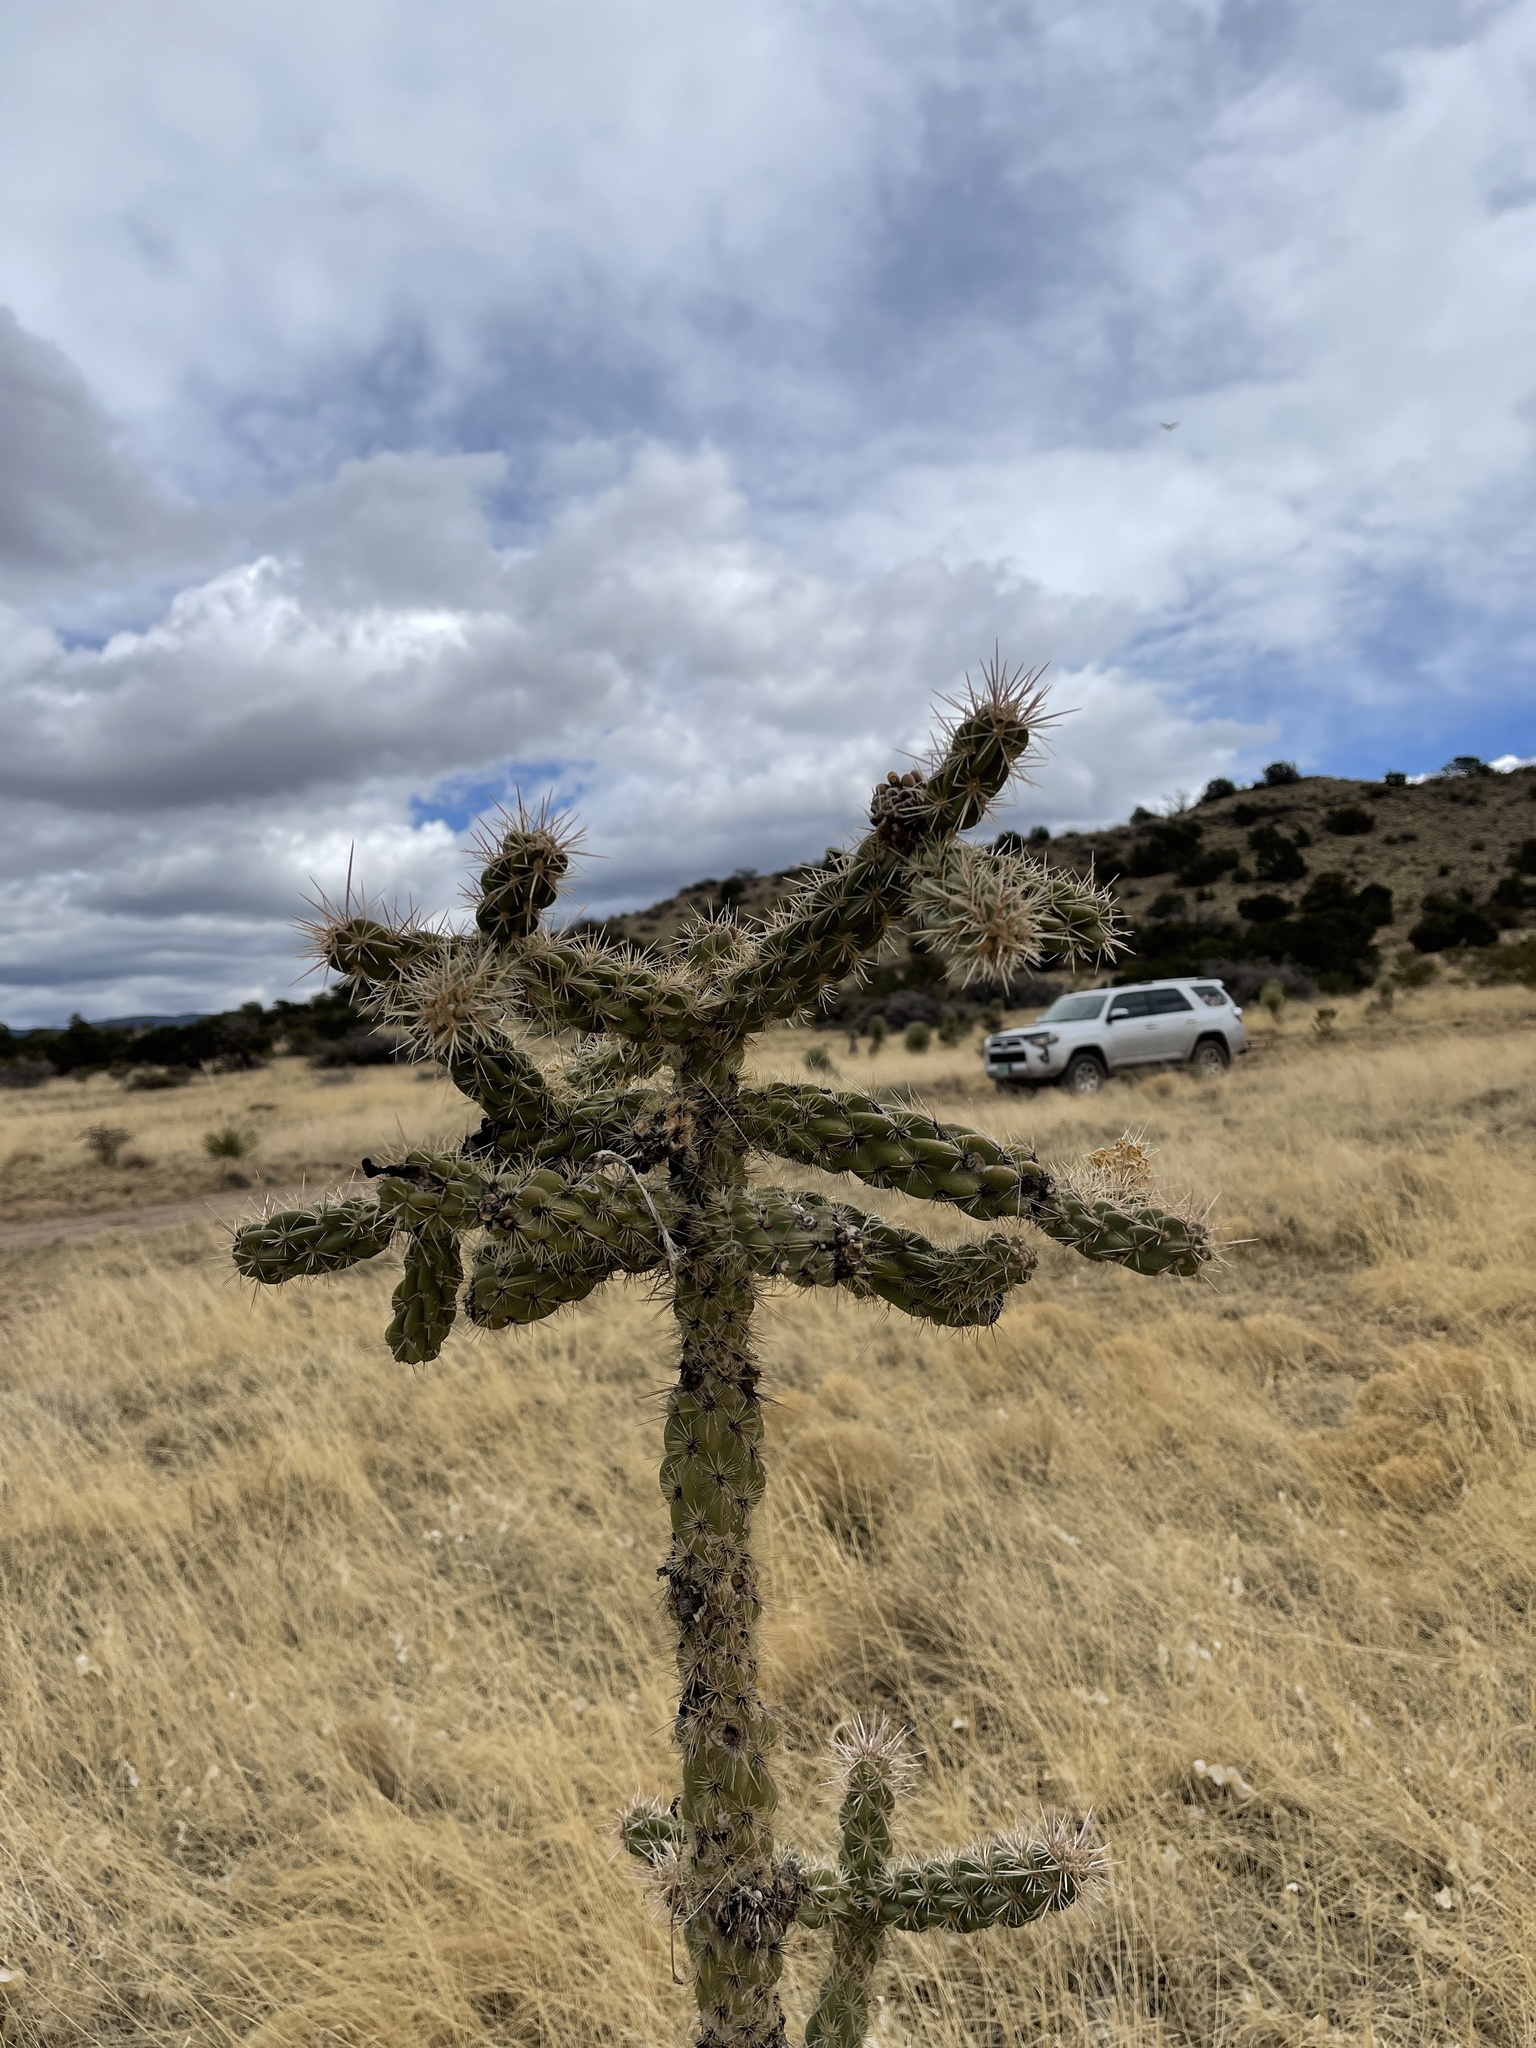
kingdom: Plantae
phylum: Tracheophyta
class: Magnoliopsida
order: Caryophyllales
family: Cactaceae
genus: Cylindropuntia
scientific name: Cylindropuntia imbricata
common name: Candelabrum cactus
